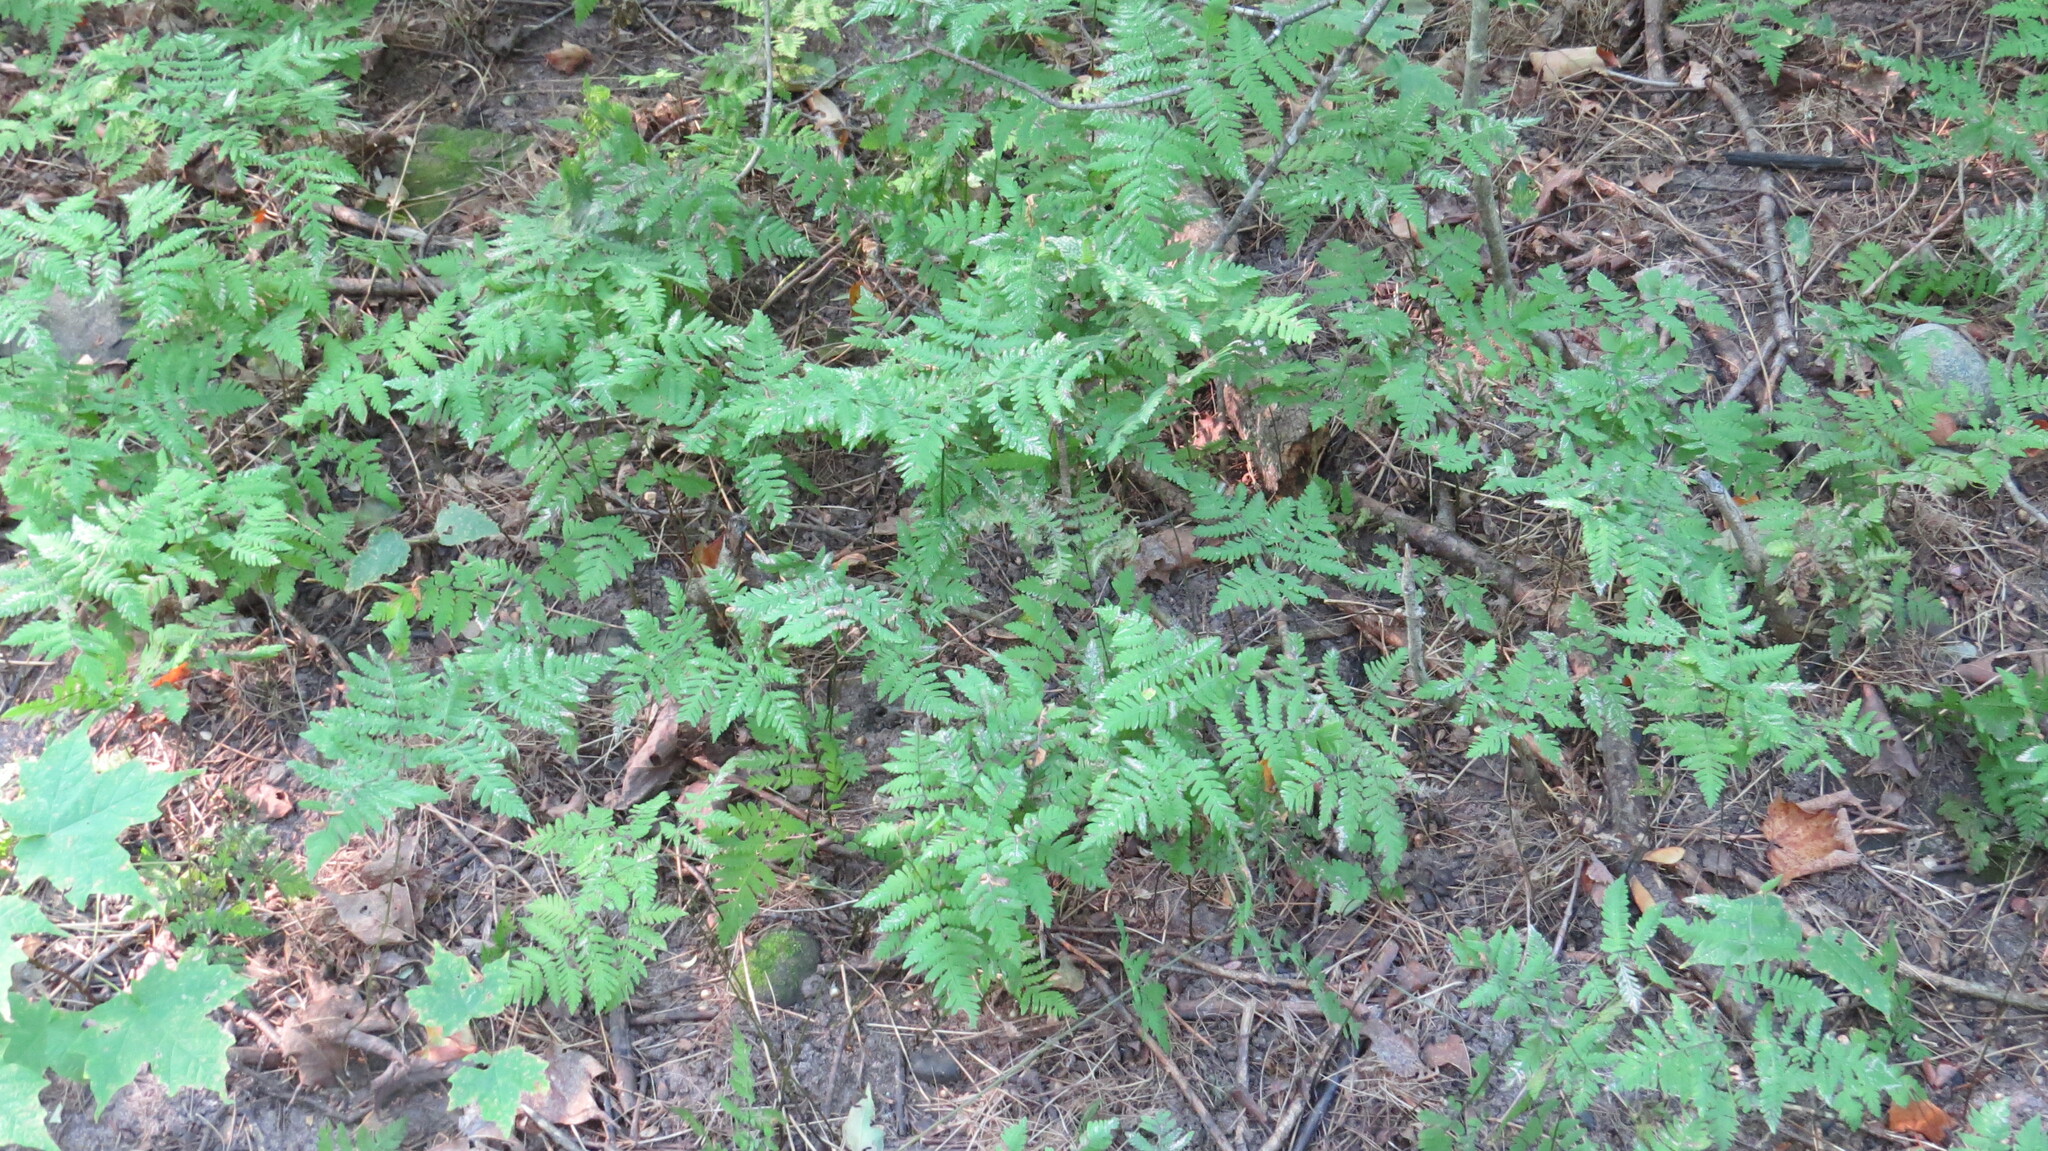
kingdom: Plantae
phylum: Tracheophyta
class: Polypodiopsida
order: Polypodiales
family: Dennstaedtiaceae
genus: Pteridium
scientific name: Pteridium aquilinum
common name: Bracken
